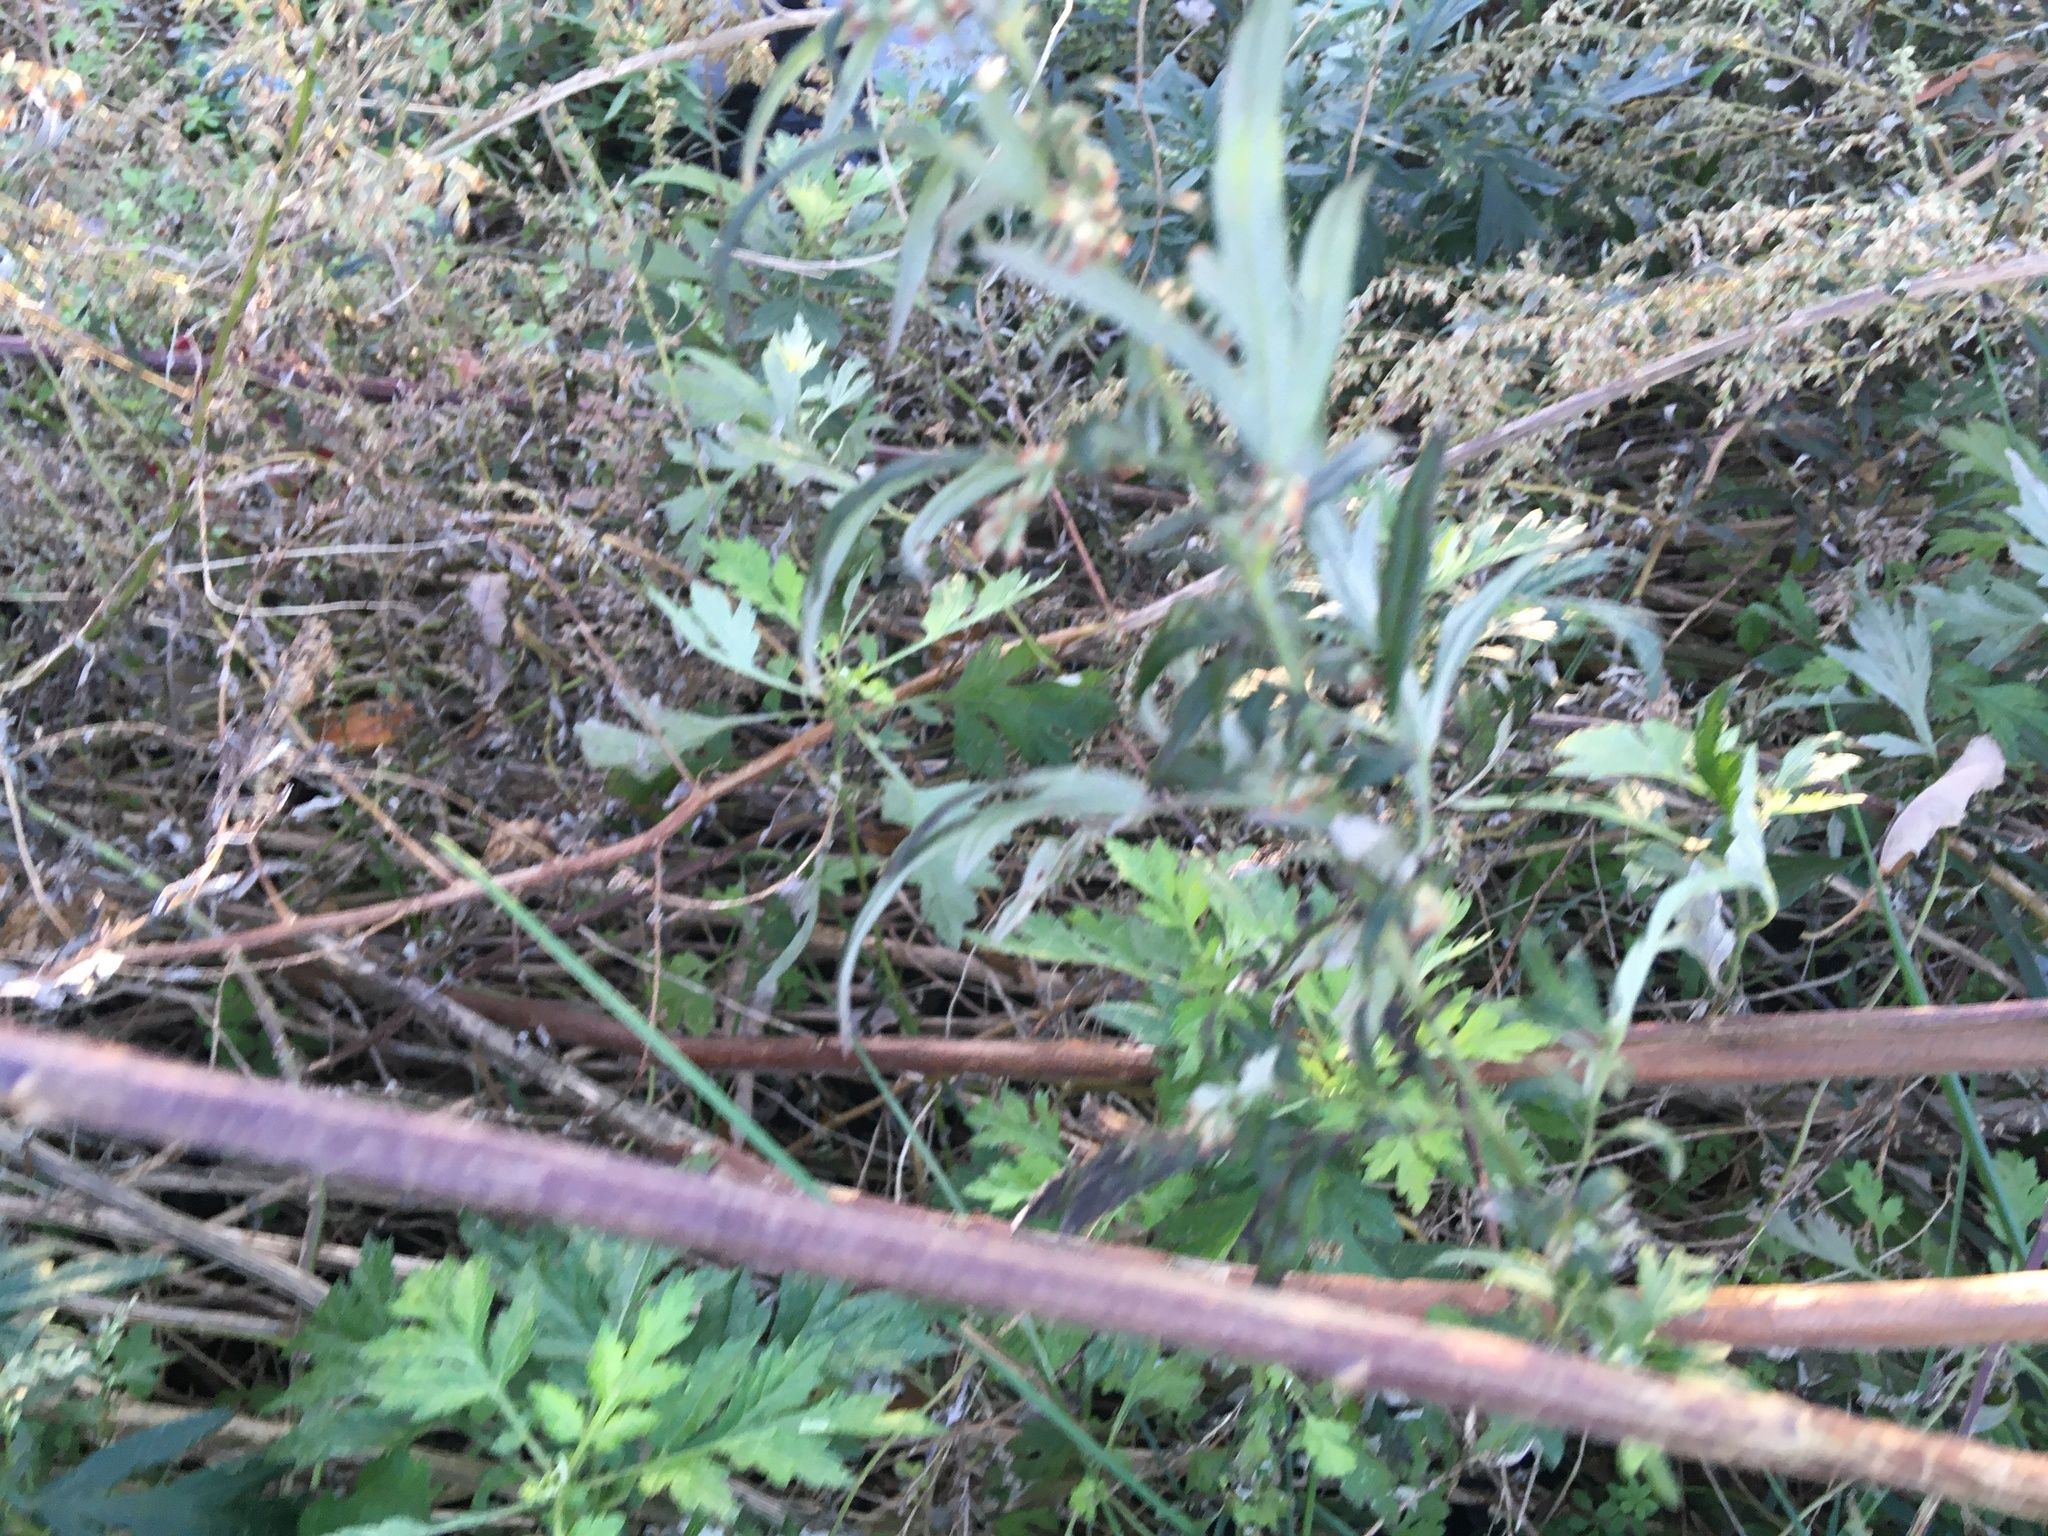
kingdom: Plantae
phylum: Tracheophyta
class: Magnoliopsida
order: Asterales
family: Asteraceae
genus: Artemisia
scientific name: Artemisia vulgaris
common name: Mugwort
